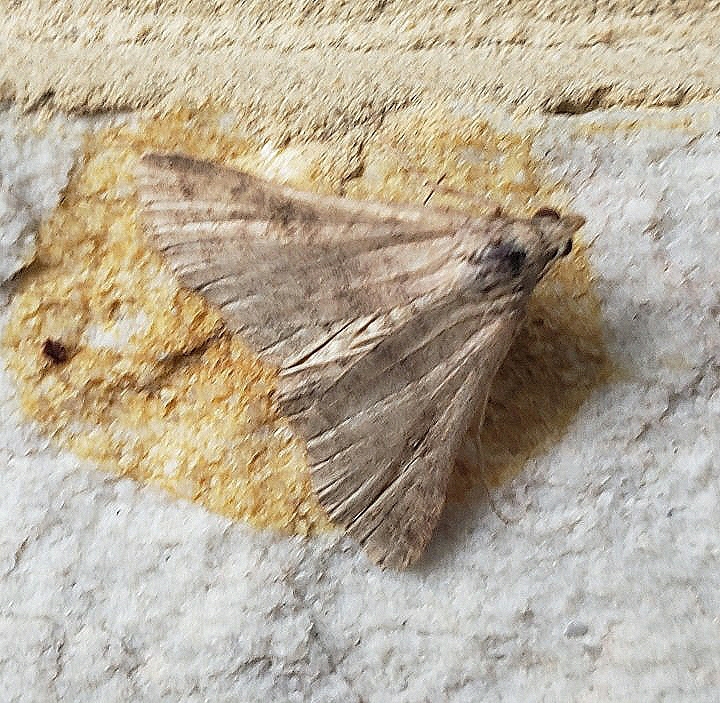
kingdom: Animalia
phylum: Arthropoda
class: Insecta
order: Lepidoptera
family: Erebidae
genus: Bleptina
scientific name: Bleptina caradrinalis
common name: Bent-winged owlet
